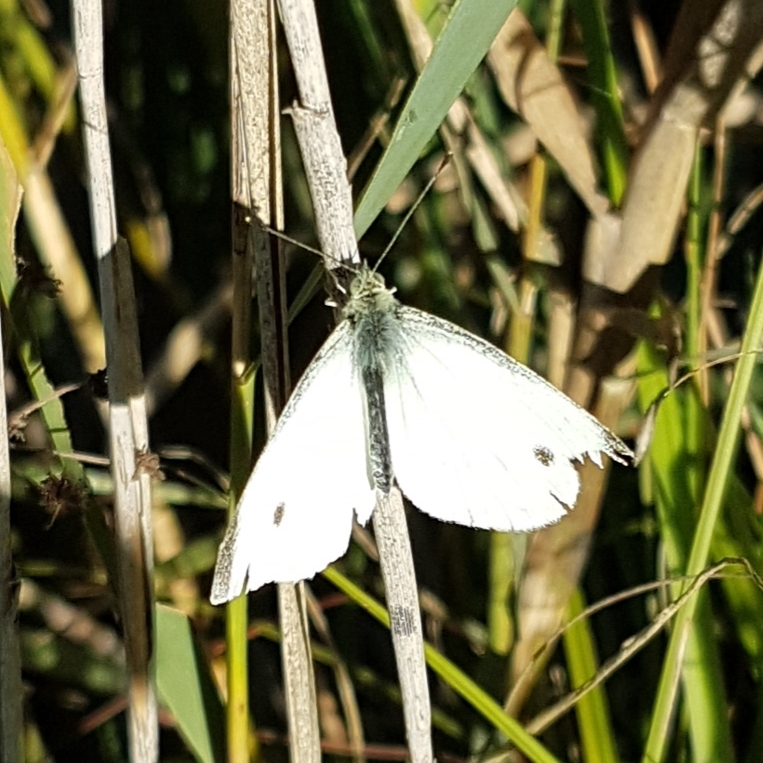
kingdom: Animalia
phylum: Arthropoda
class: Insecta
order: Lepidoptera
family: Pieridae
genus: Pieris
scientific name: Pieris rapae
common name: Small white
